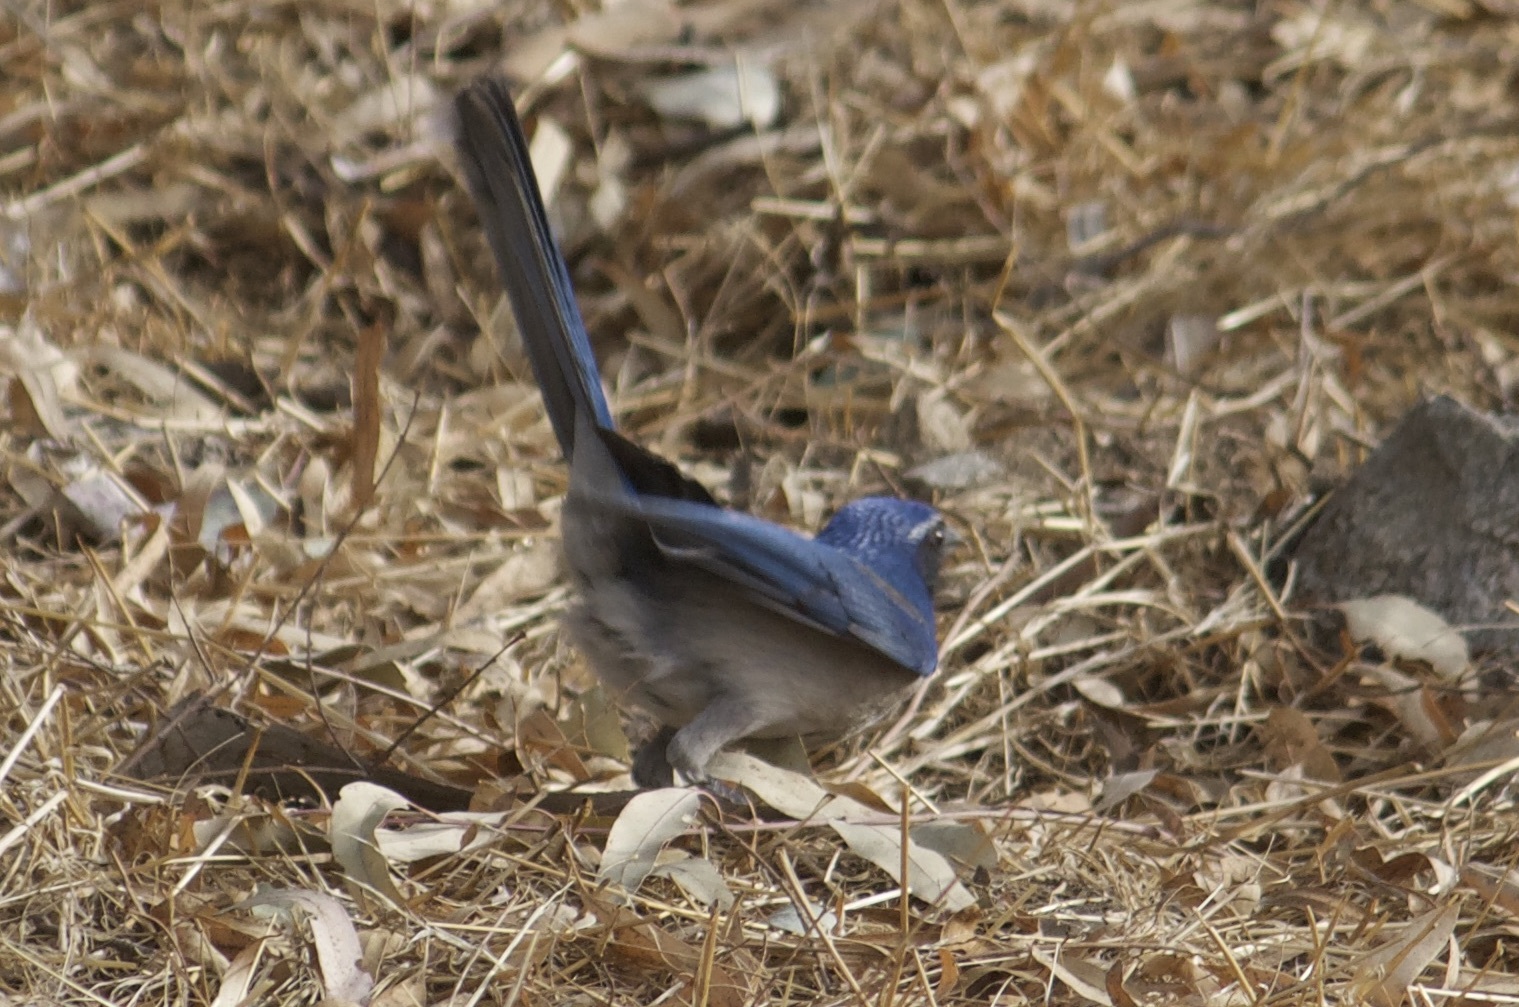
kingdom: Animalia
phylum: Chordata
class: Aves
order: Passeriformes
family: Corvidae
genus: Aphelocoma
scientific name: Aphelocoma californica
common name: California scrub-jay
